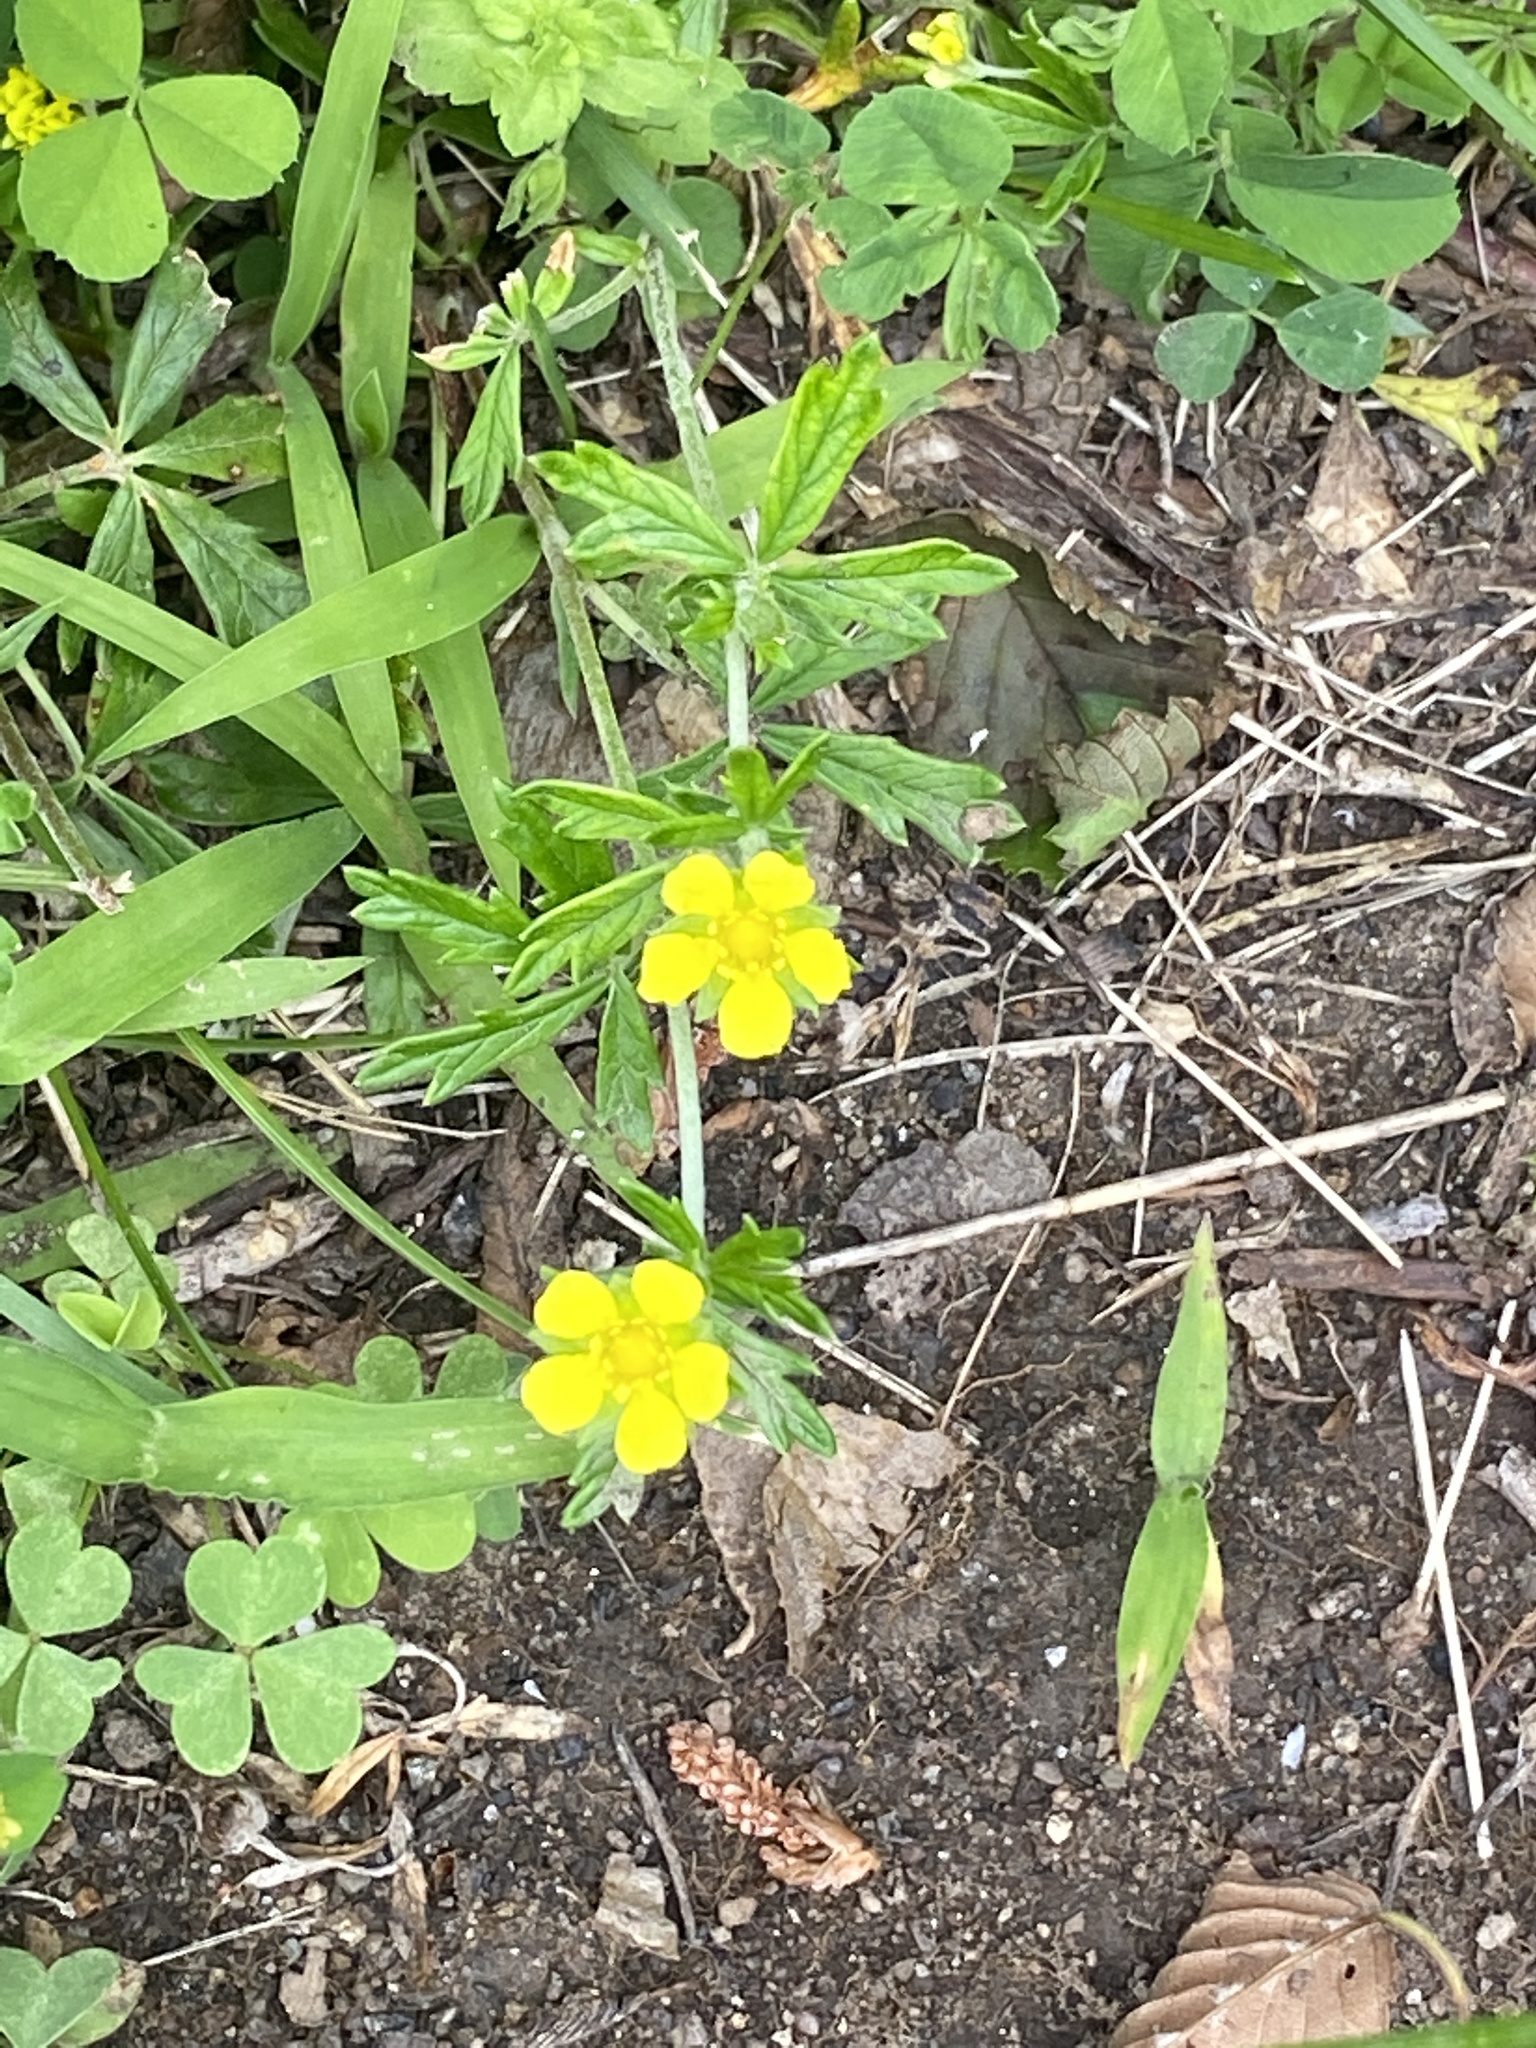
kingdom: Plantae
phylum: Tracheophyta
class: Magnoliopsida
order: Rosales
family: Rosaceae
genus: Potentilla
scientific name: Potentilla argentea
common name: Hoary cinquefoil
